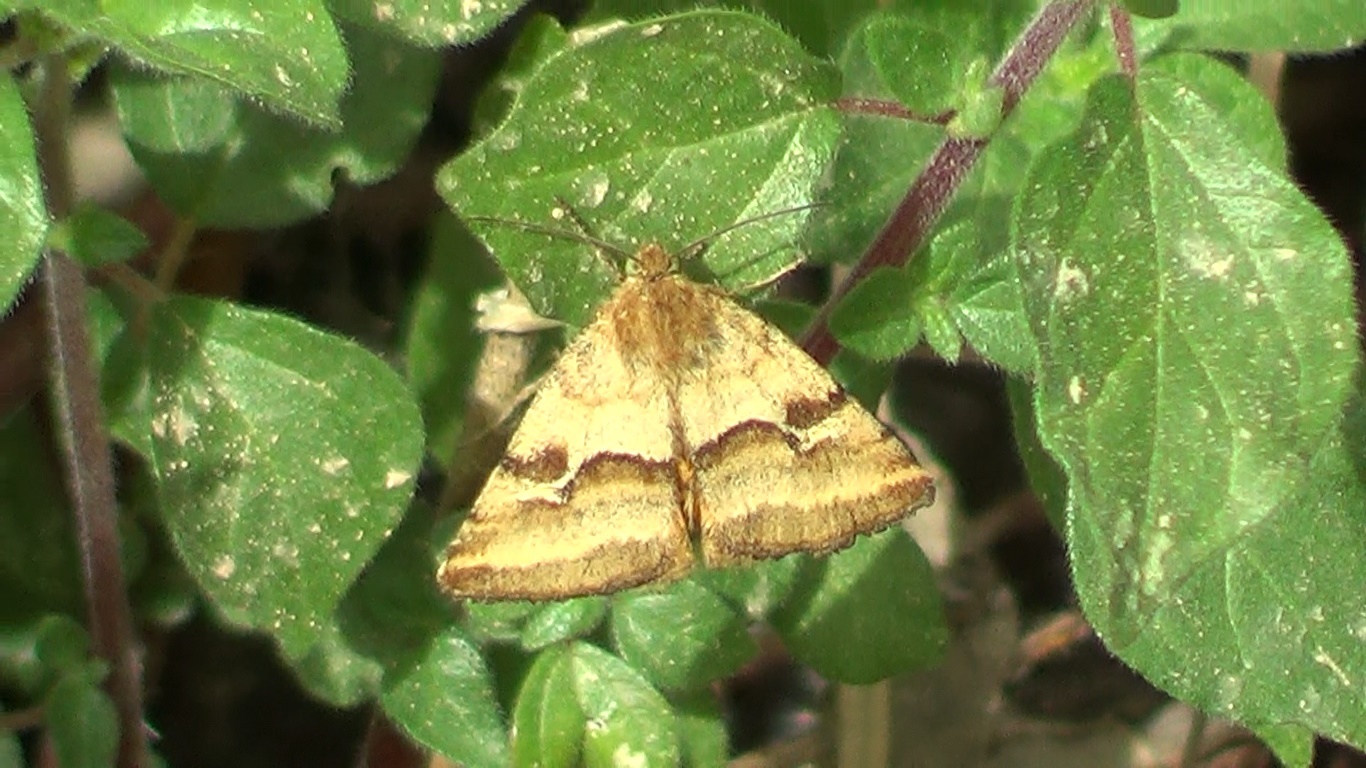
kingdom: Animalia
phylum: Arthropoda
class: Insecta
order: Lepidoptera
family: Noctuidae
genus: Synthymia
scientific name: Synthymia fixa
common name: Goldwing
